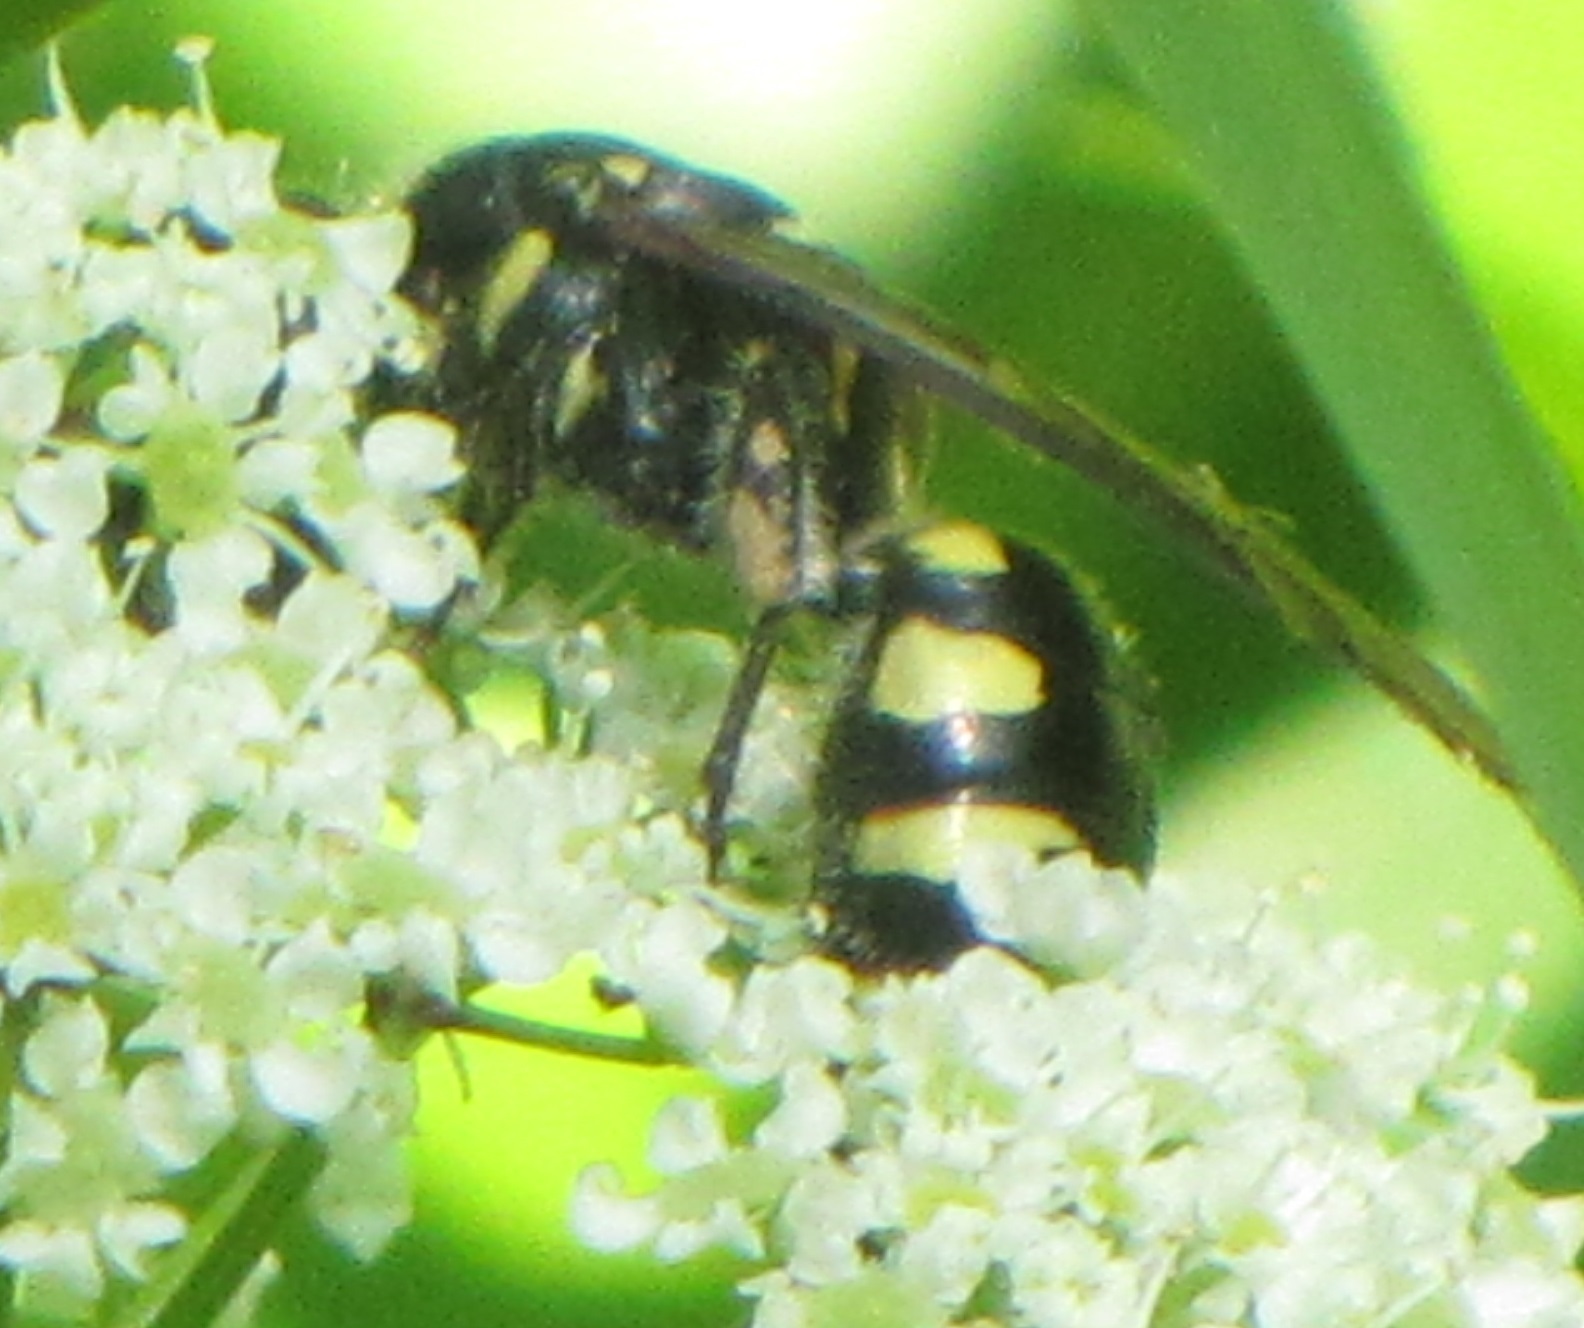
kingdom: Animalia
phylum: Arthropoda
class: Insecta
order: Hymenoptera
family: Tiphiidae
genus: Myzinum
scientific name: Myzinum obscurum
